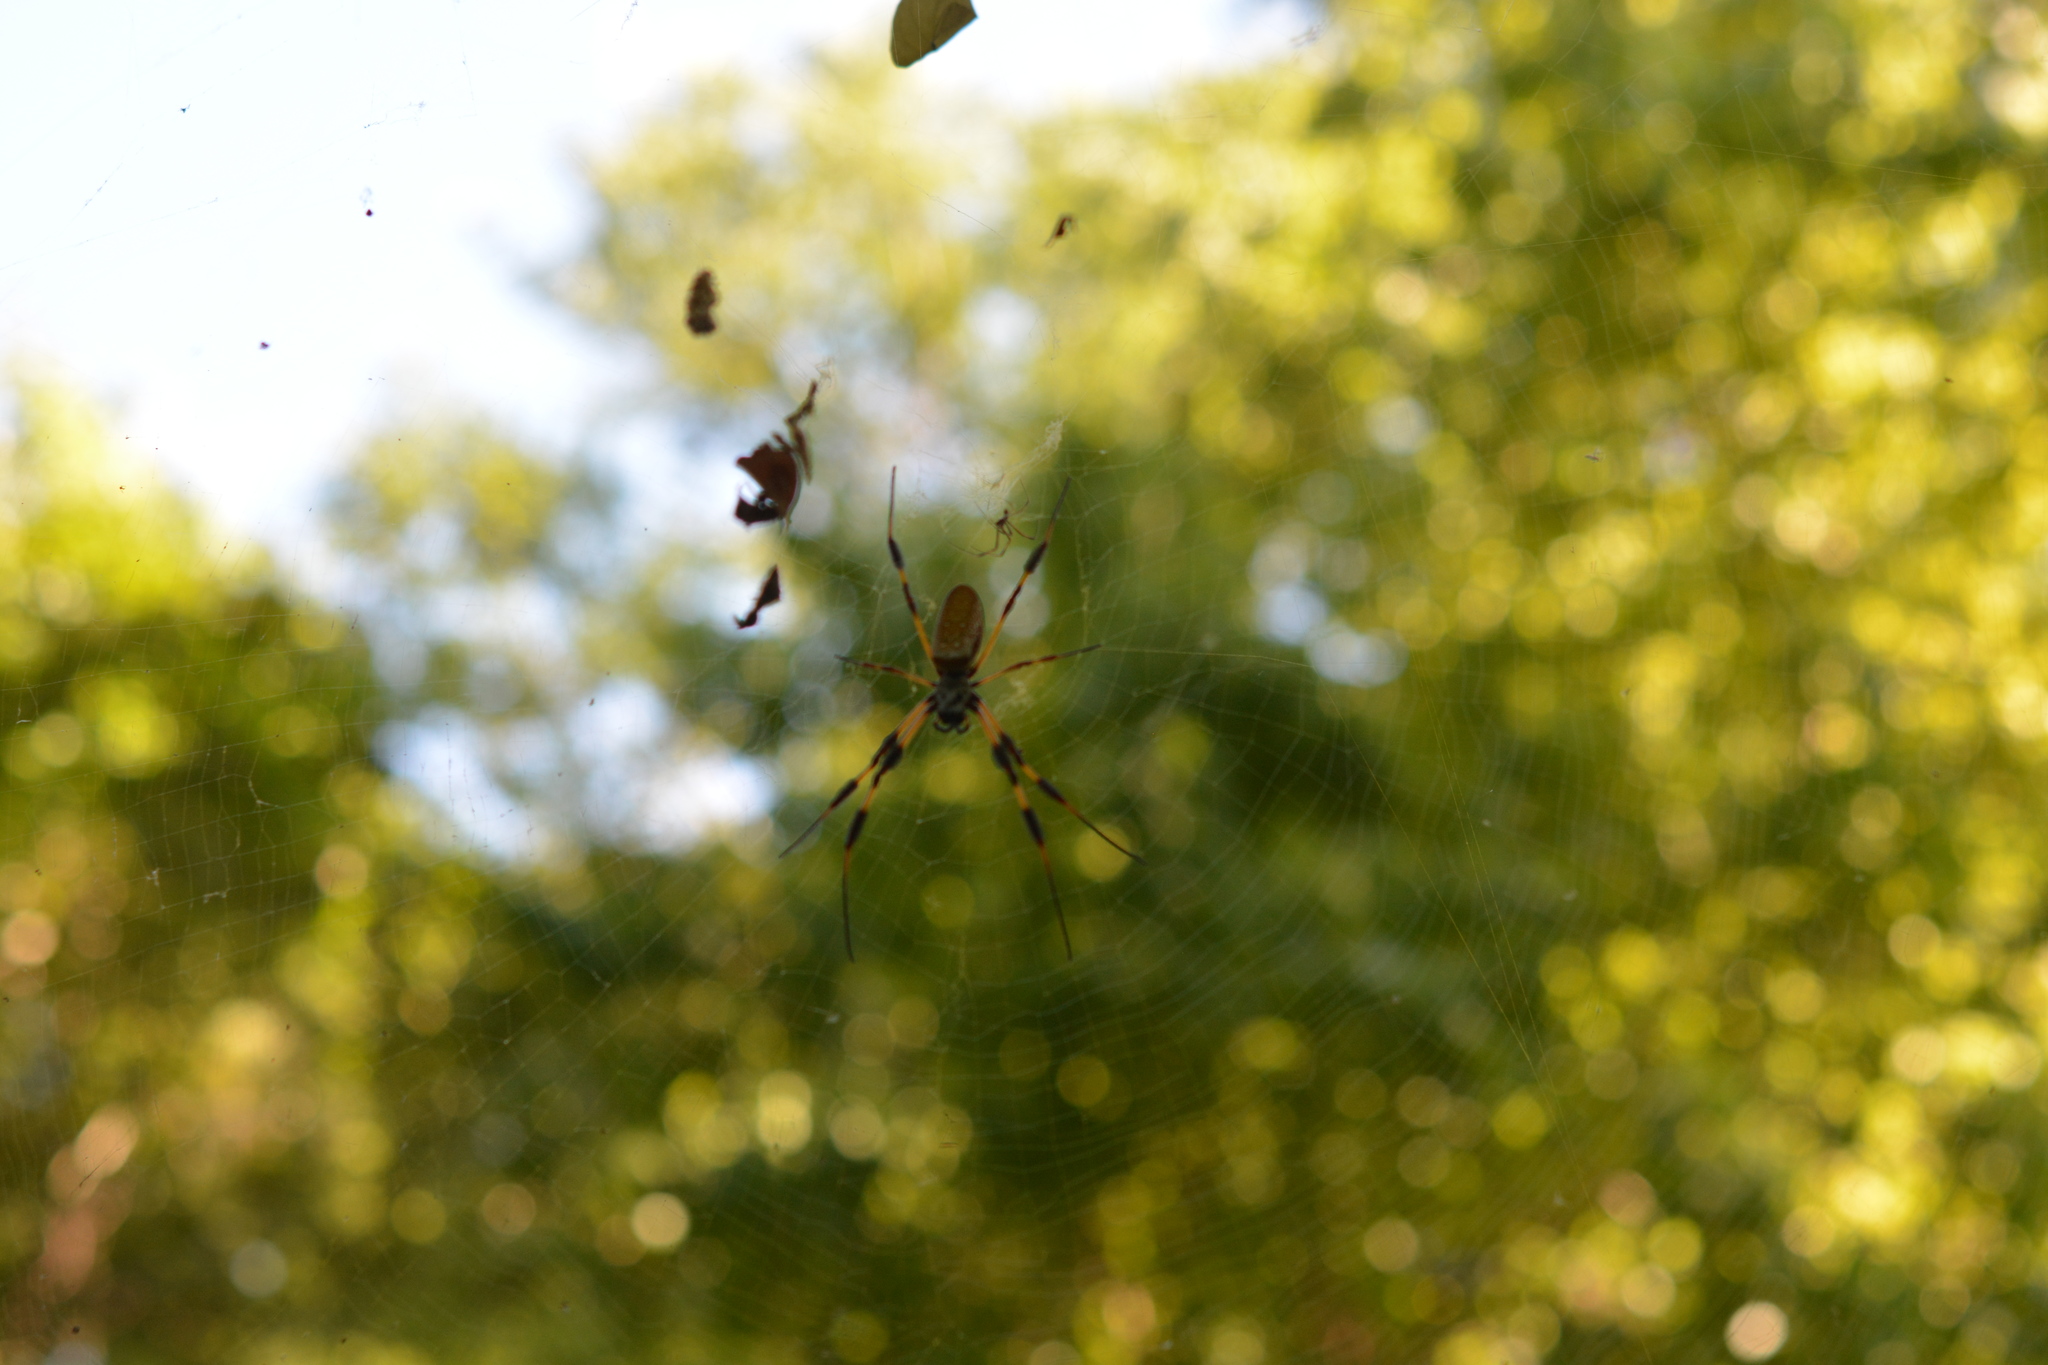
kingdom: Animalia
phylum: Arthropoda
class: Arachnida
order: Araneae
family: Araneidae
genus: Trichonephila
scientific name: Trichonephila clavipes
